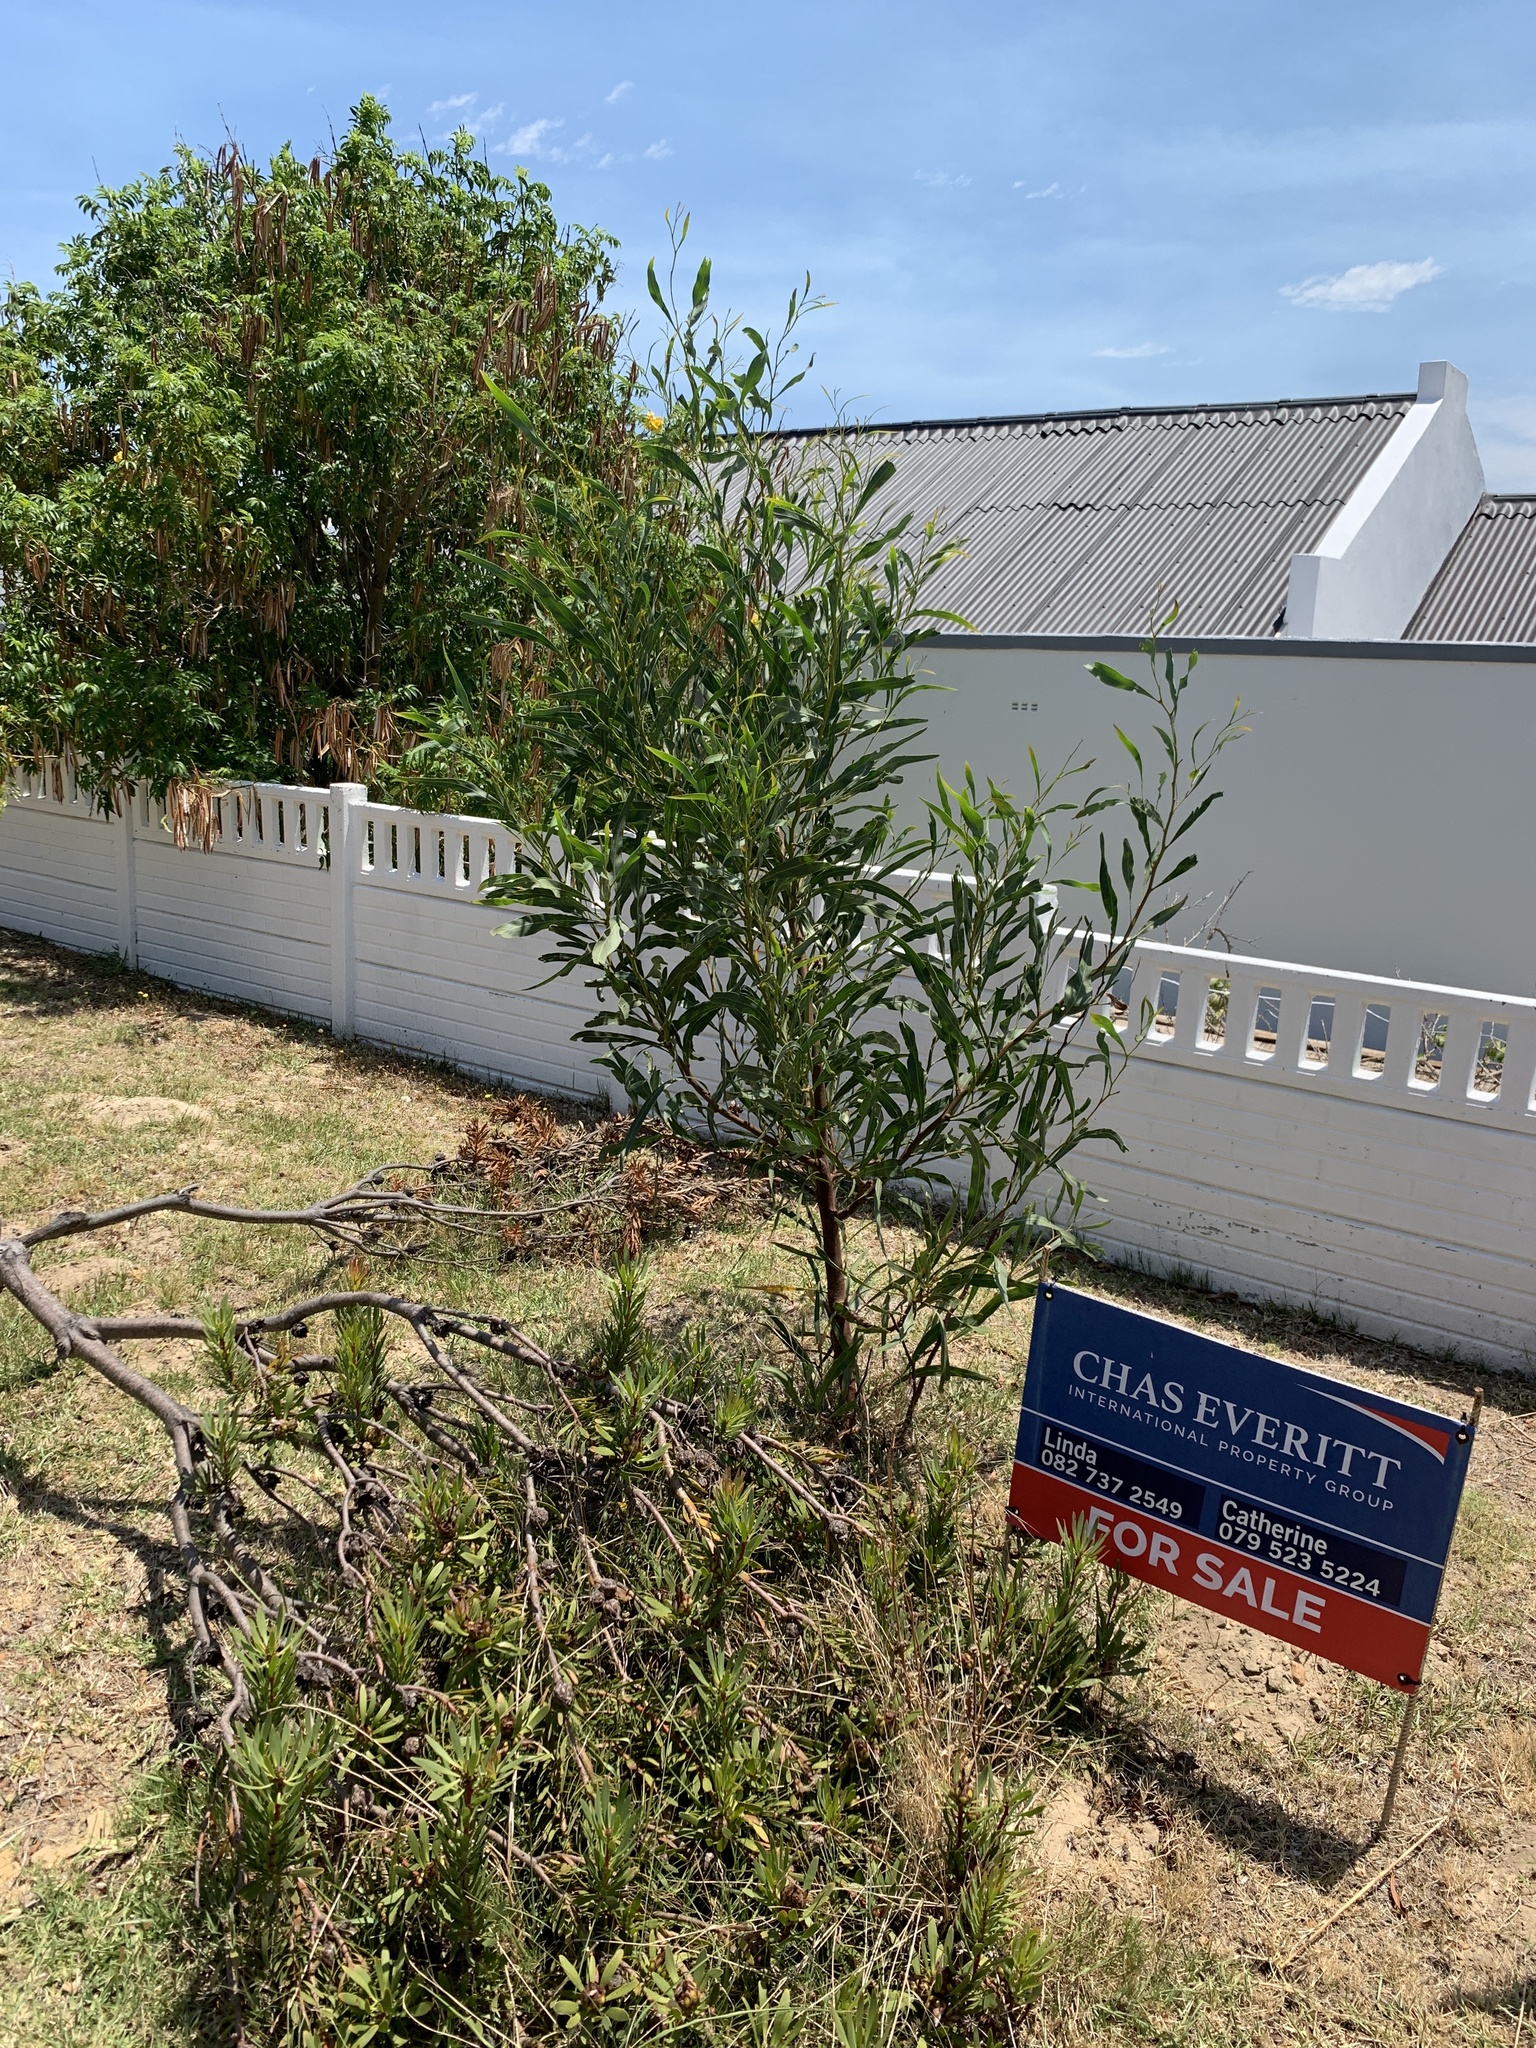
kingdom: Plantae
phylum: Tracheophyta
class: Magnoliopsida
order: Fabales
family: Fabaceae
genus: Acacia
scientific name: Acacia saligna
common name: Orange wattle
